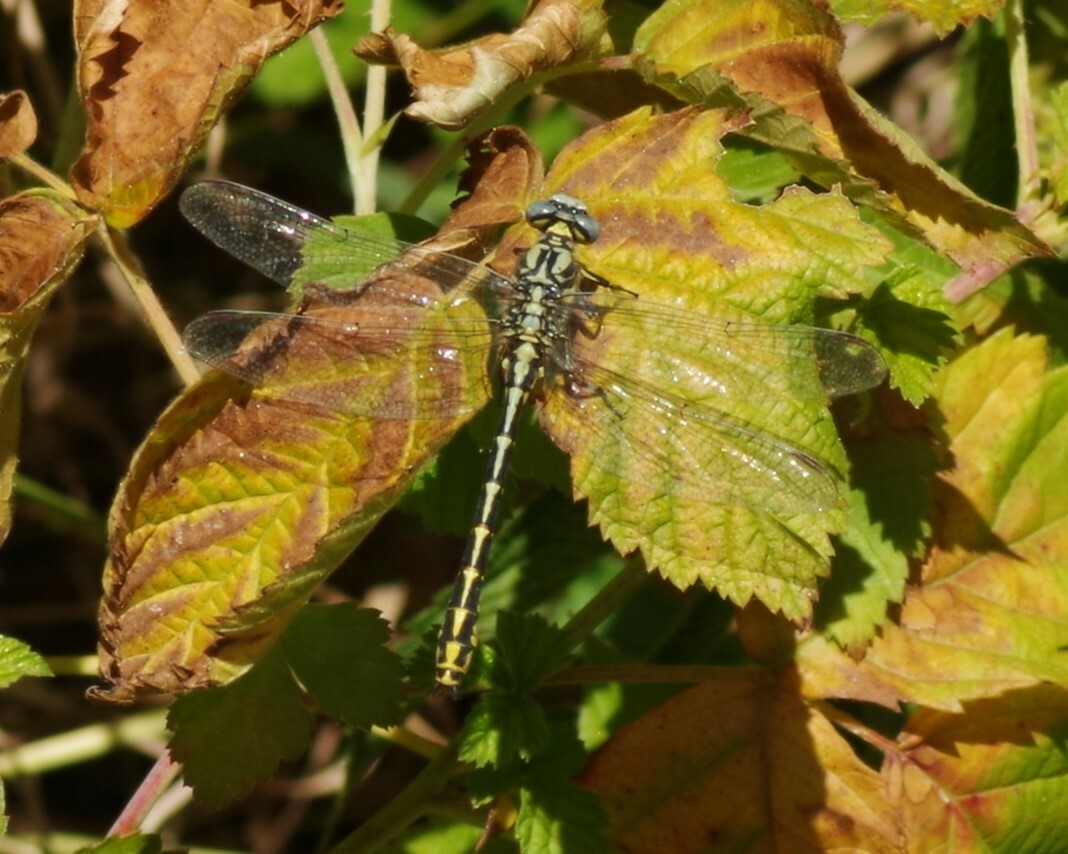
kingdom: Animalia
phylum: Arthropoda
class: Insecta
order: Odonata
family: Gomphidae
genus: Gomphus
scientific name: Gomphus graslinii
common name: Pronged clubtail
